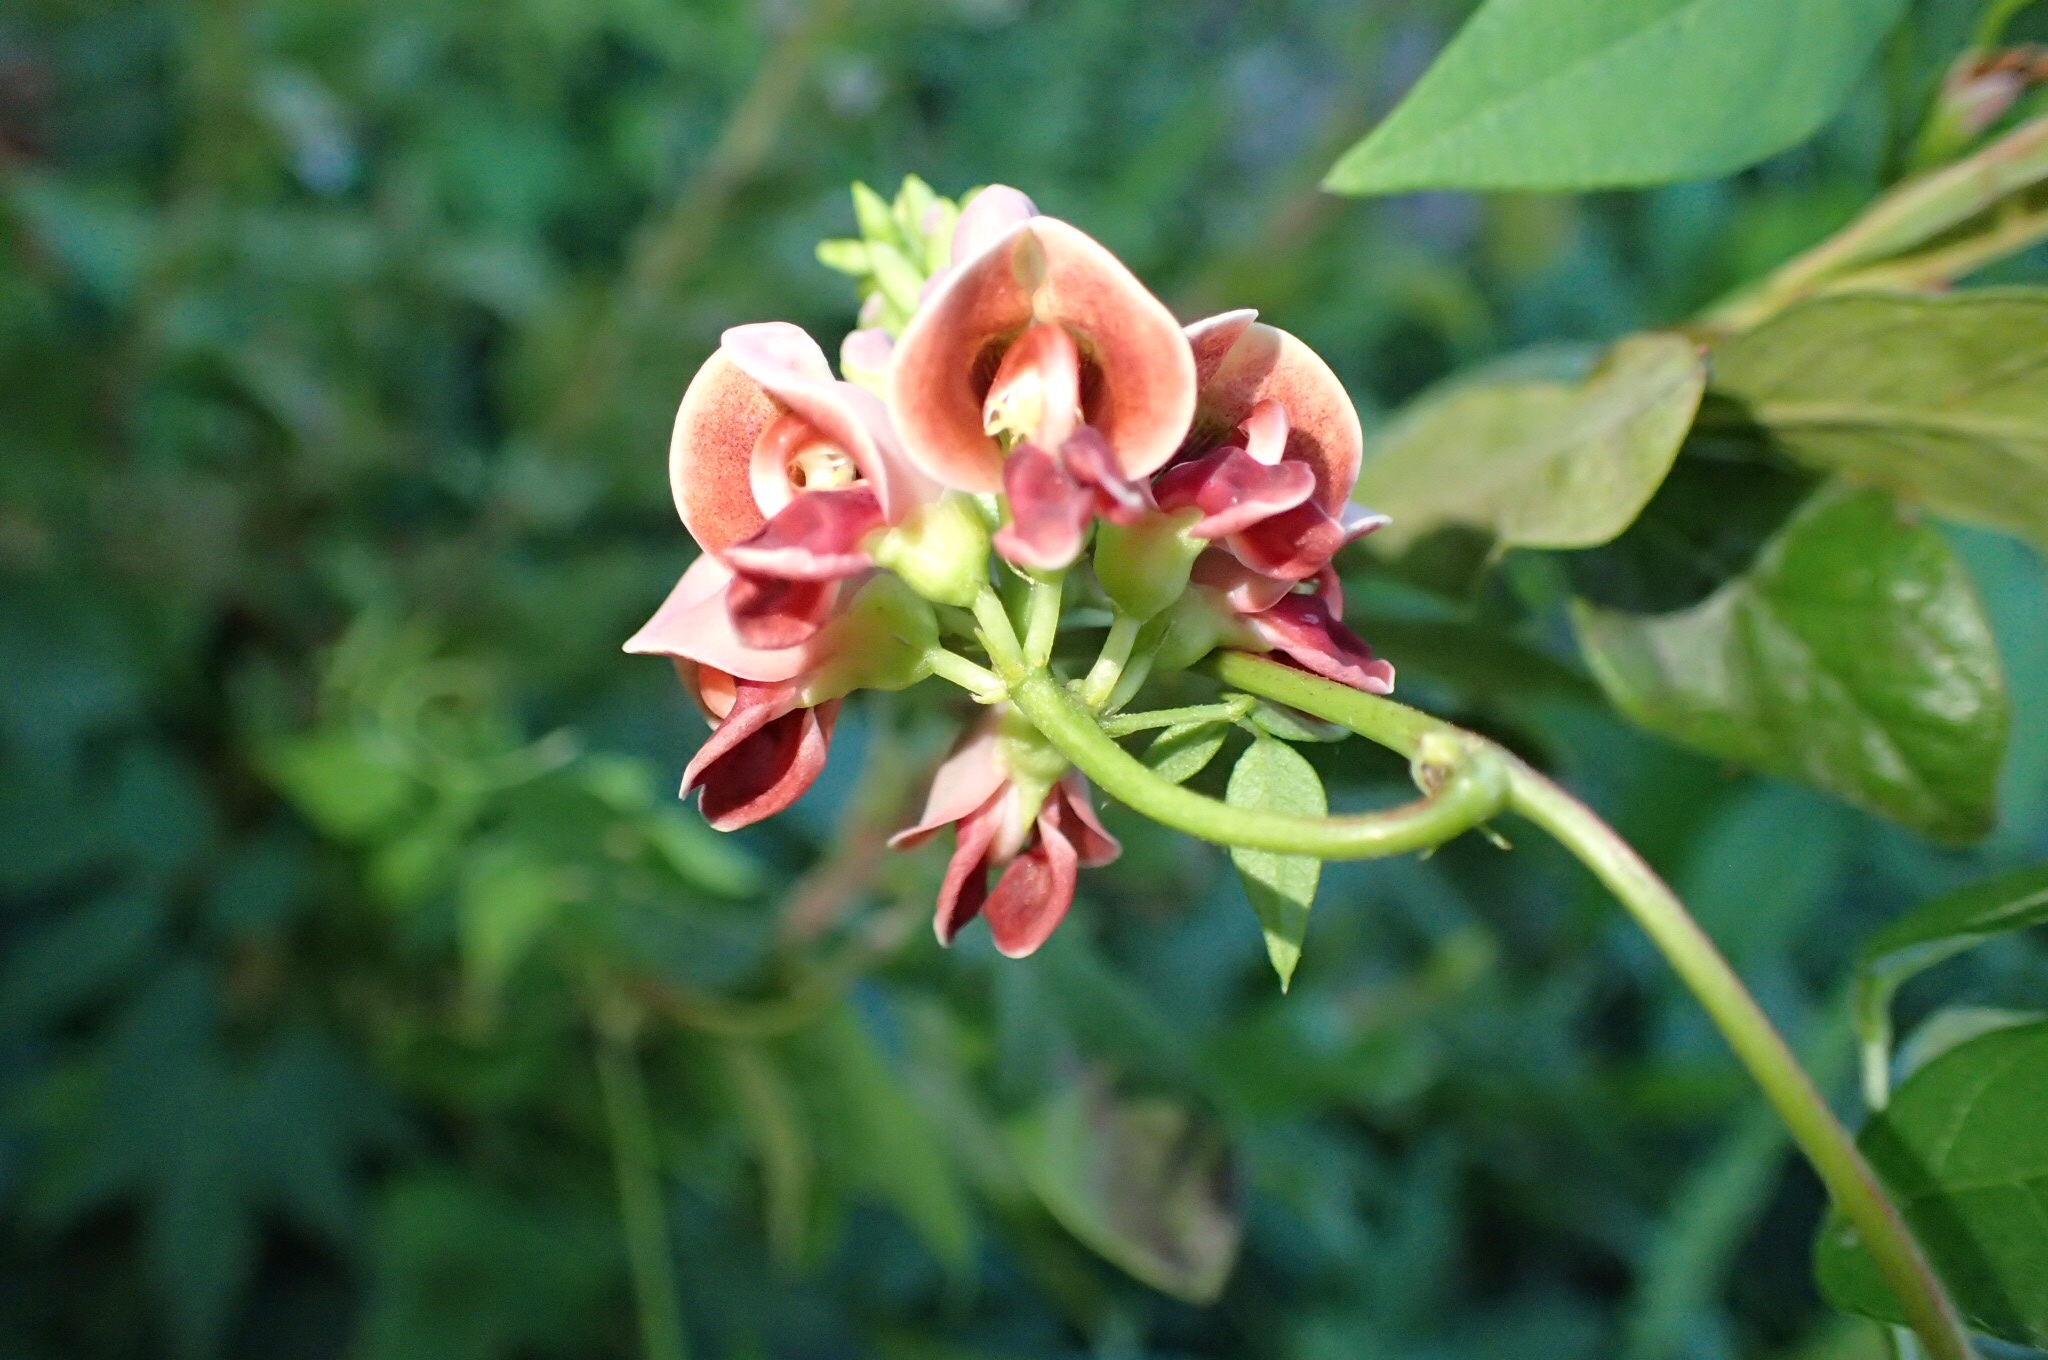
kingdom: Plantae
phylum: Tracheophyta
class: Magnoliopsida
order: Fabales
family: Fabaceae
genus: Apios
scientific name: Apios americana
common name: American potato-bean
